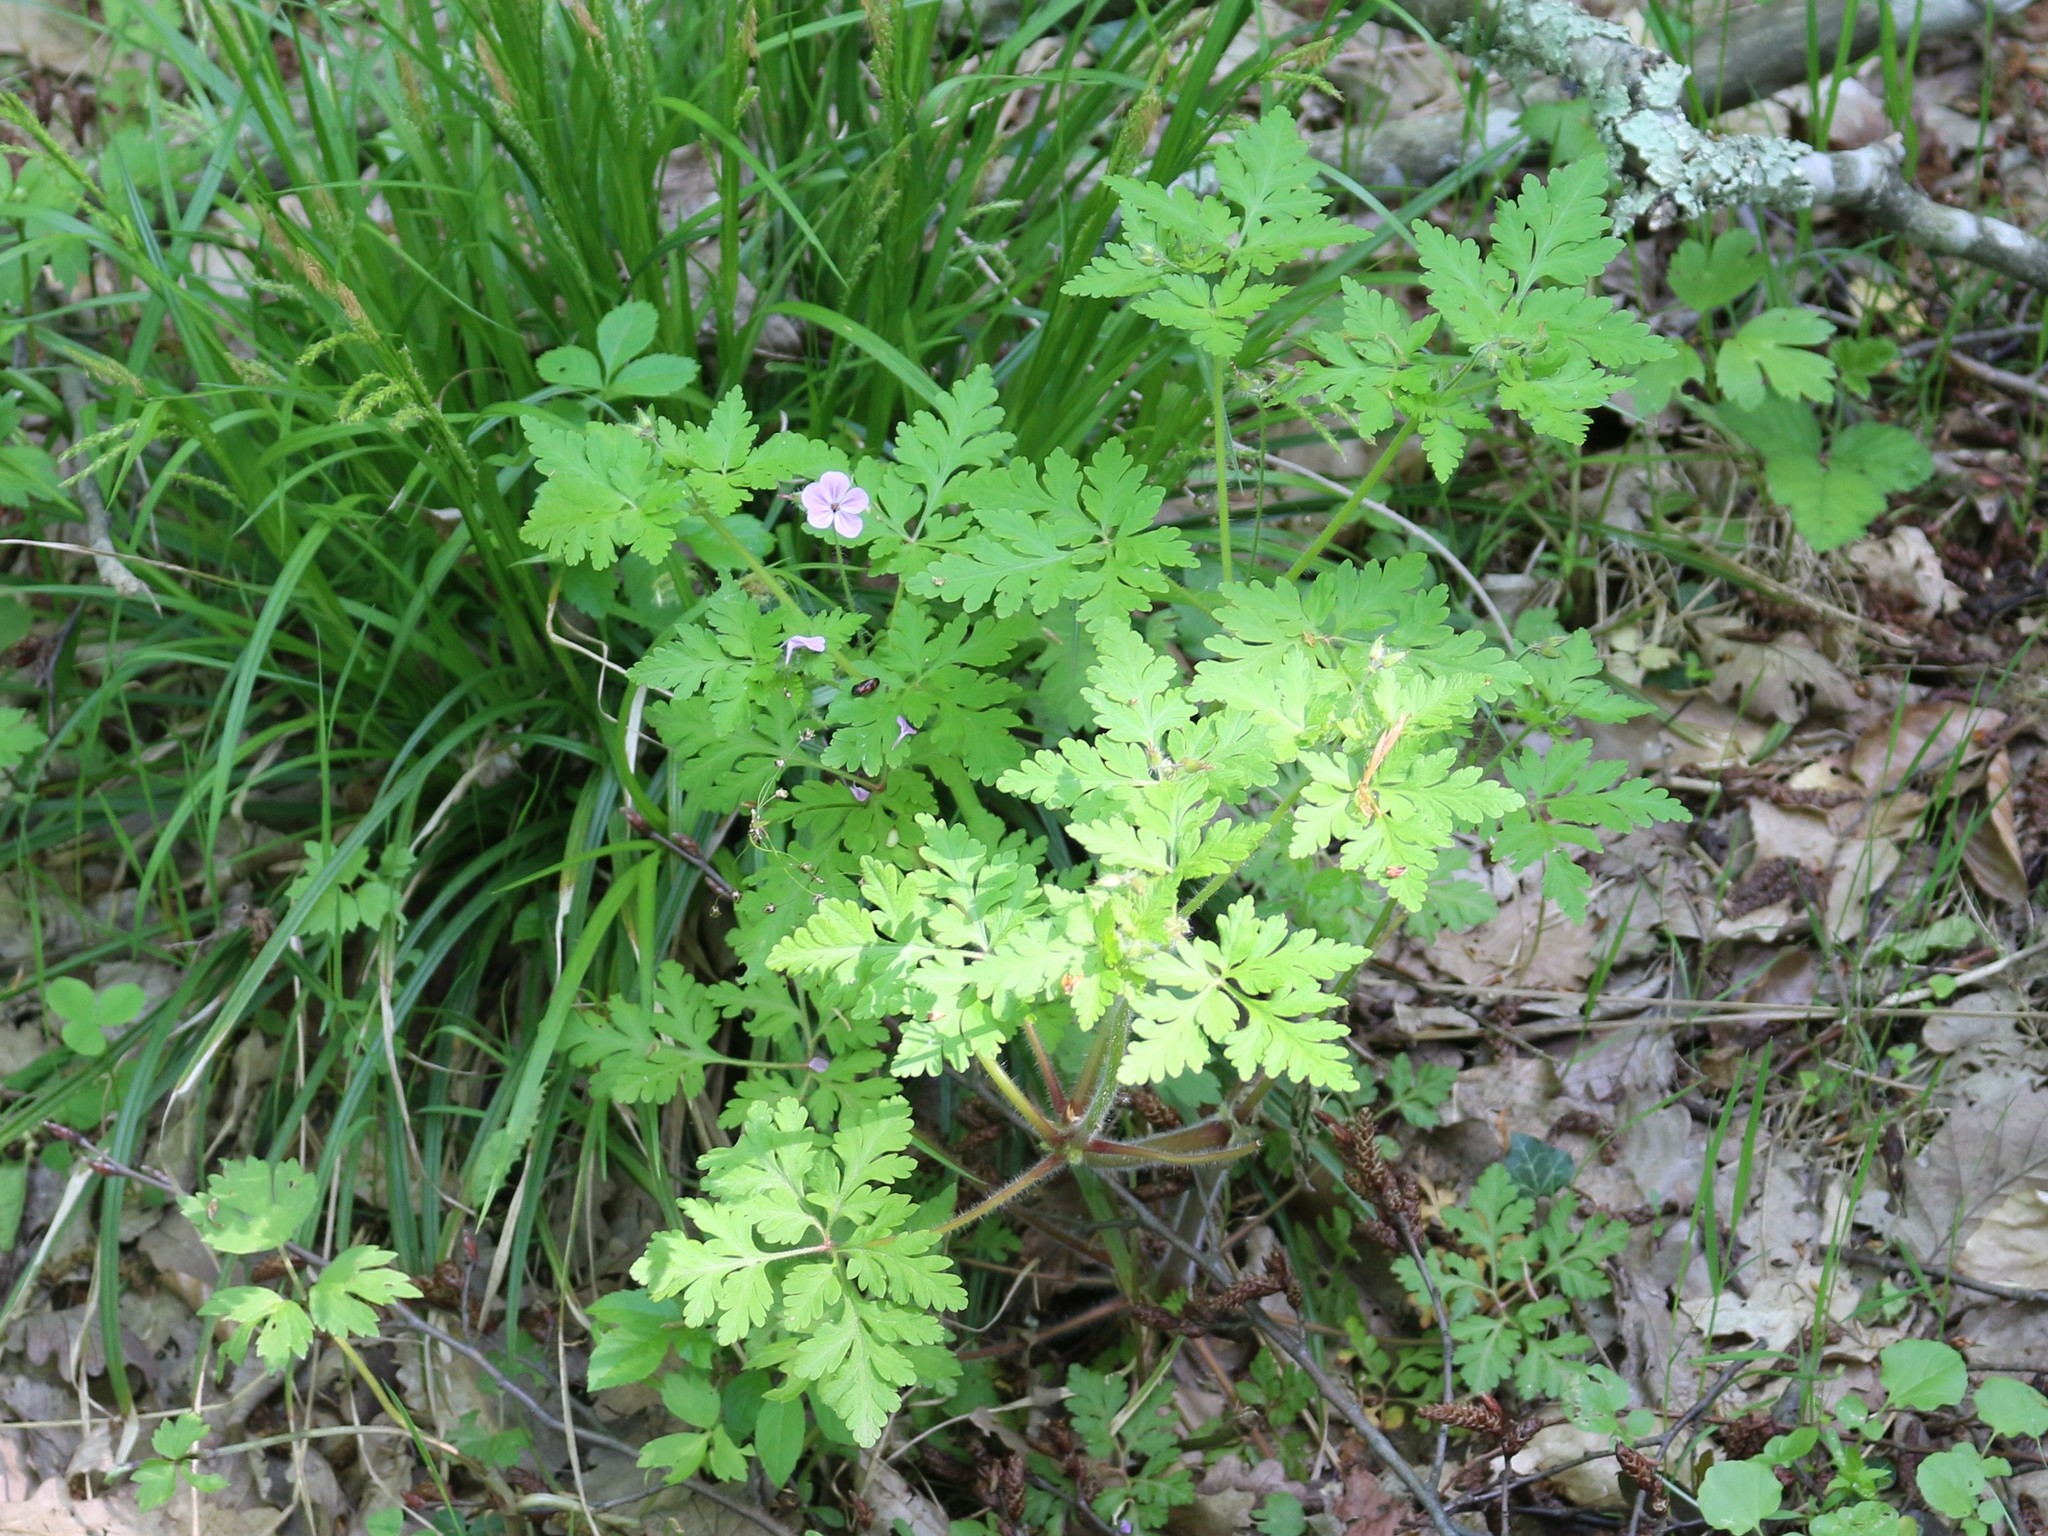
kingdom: Plantae
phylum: Tracheophyta
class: Magnoliopsida
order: Geraniales
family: Geraniaceae
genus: Geranium
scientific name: Geranium robertianum
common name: Herb-robert
